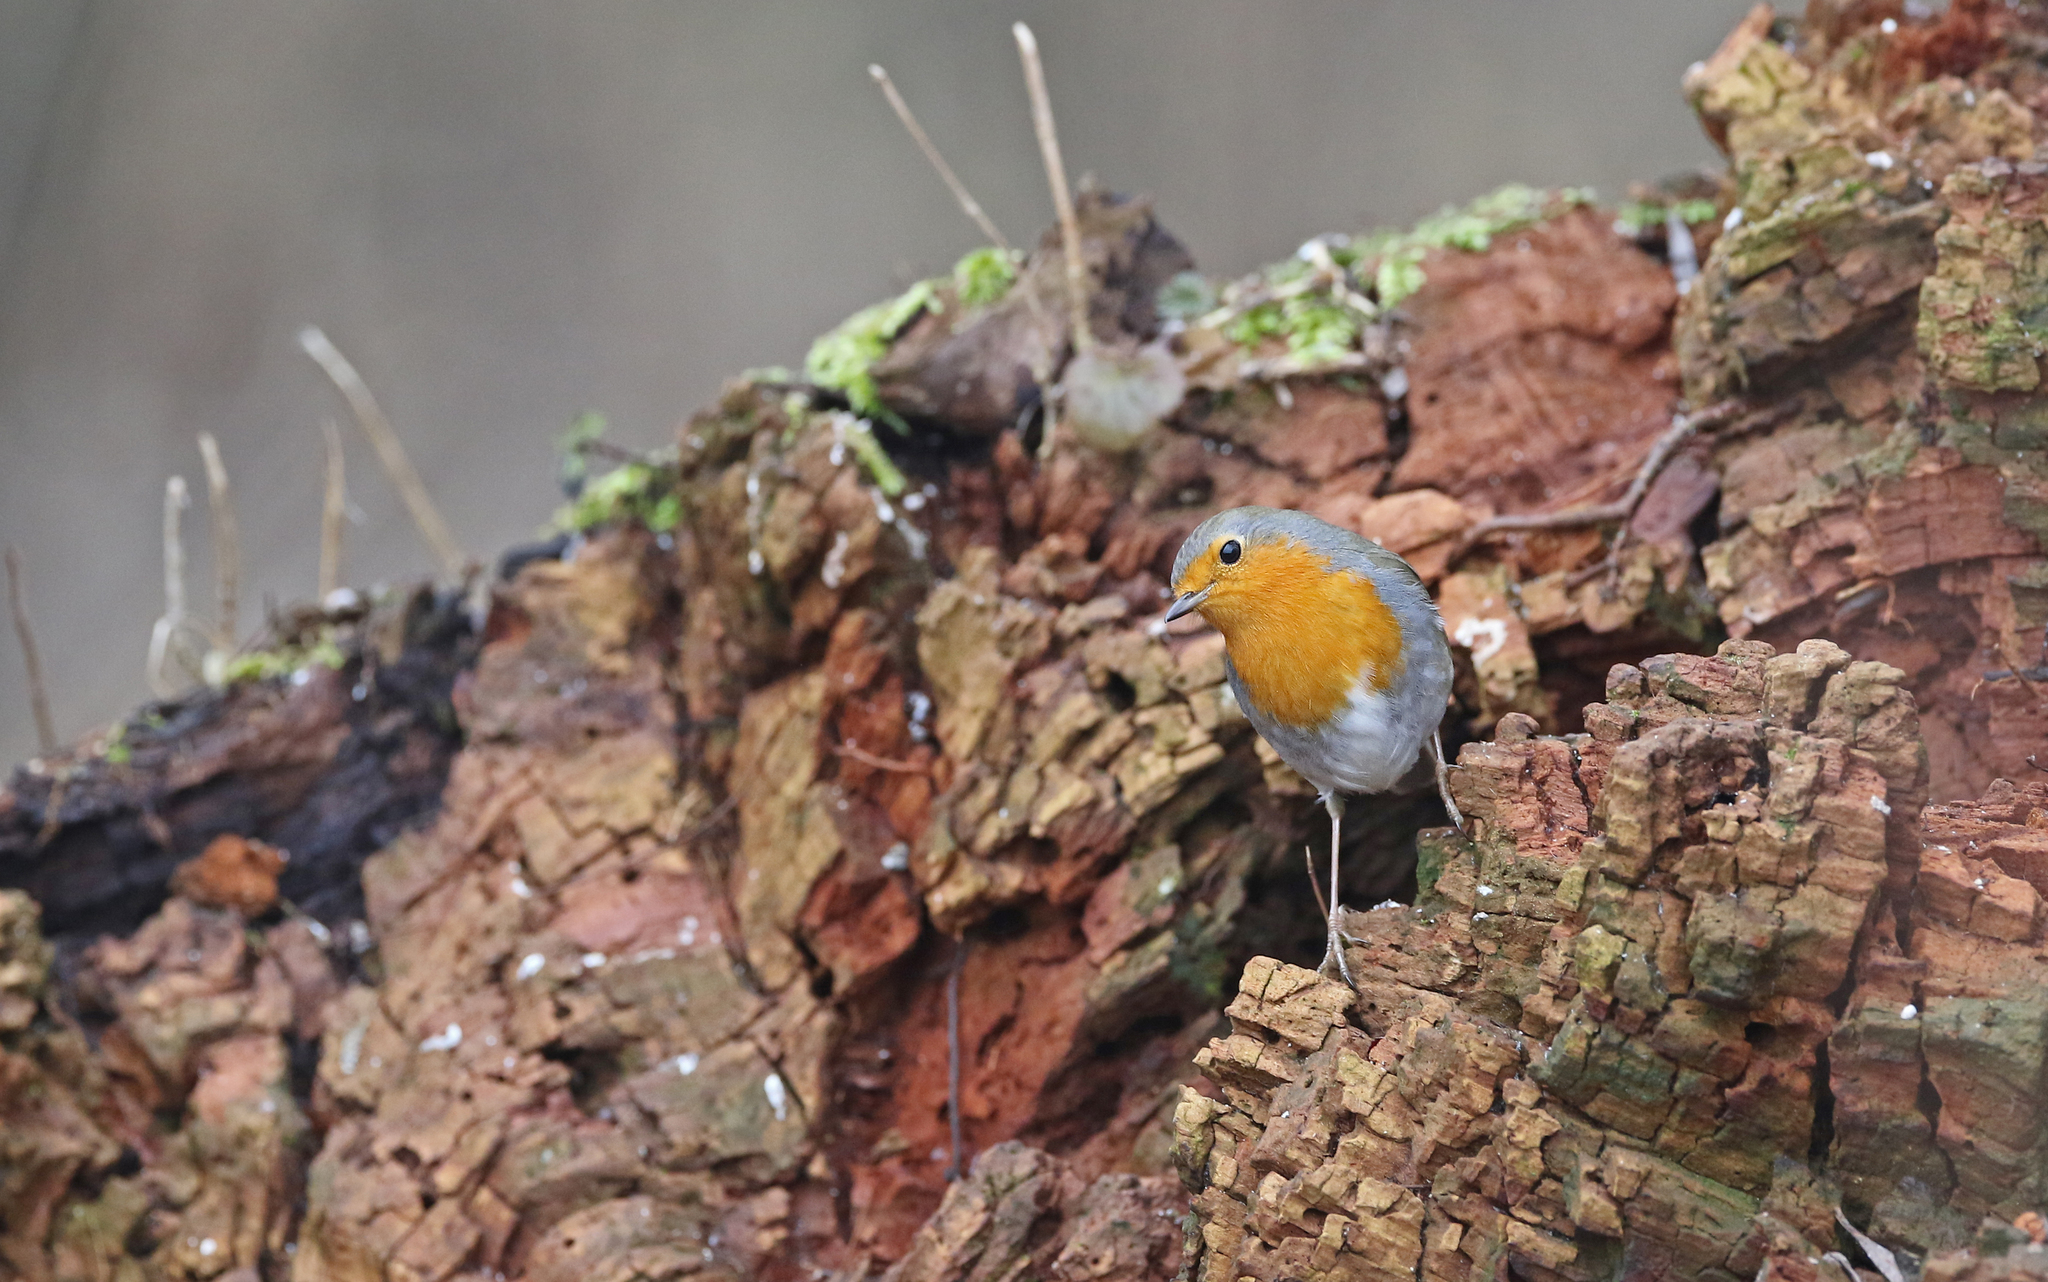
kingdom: Animalia
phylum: Chordata
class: Aves
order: Passeriformes
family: Muscicapidae
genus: Erithacus
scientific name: Erithacus rubecula
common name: European robin
